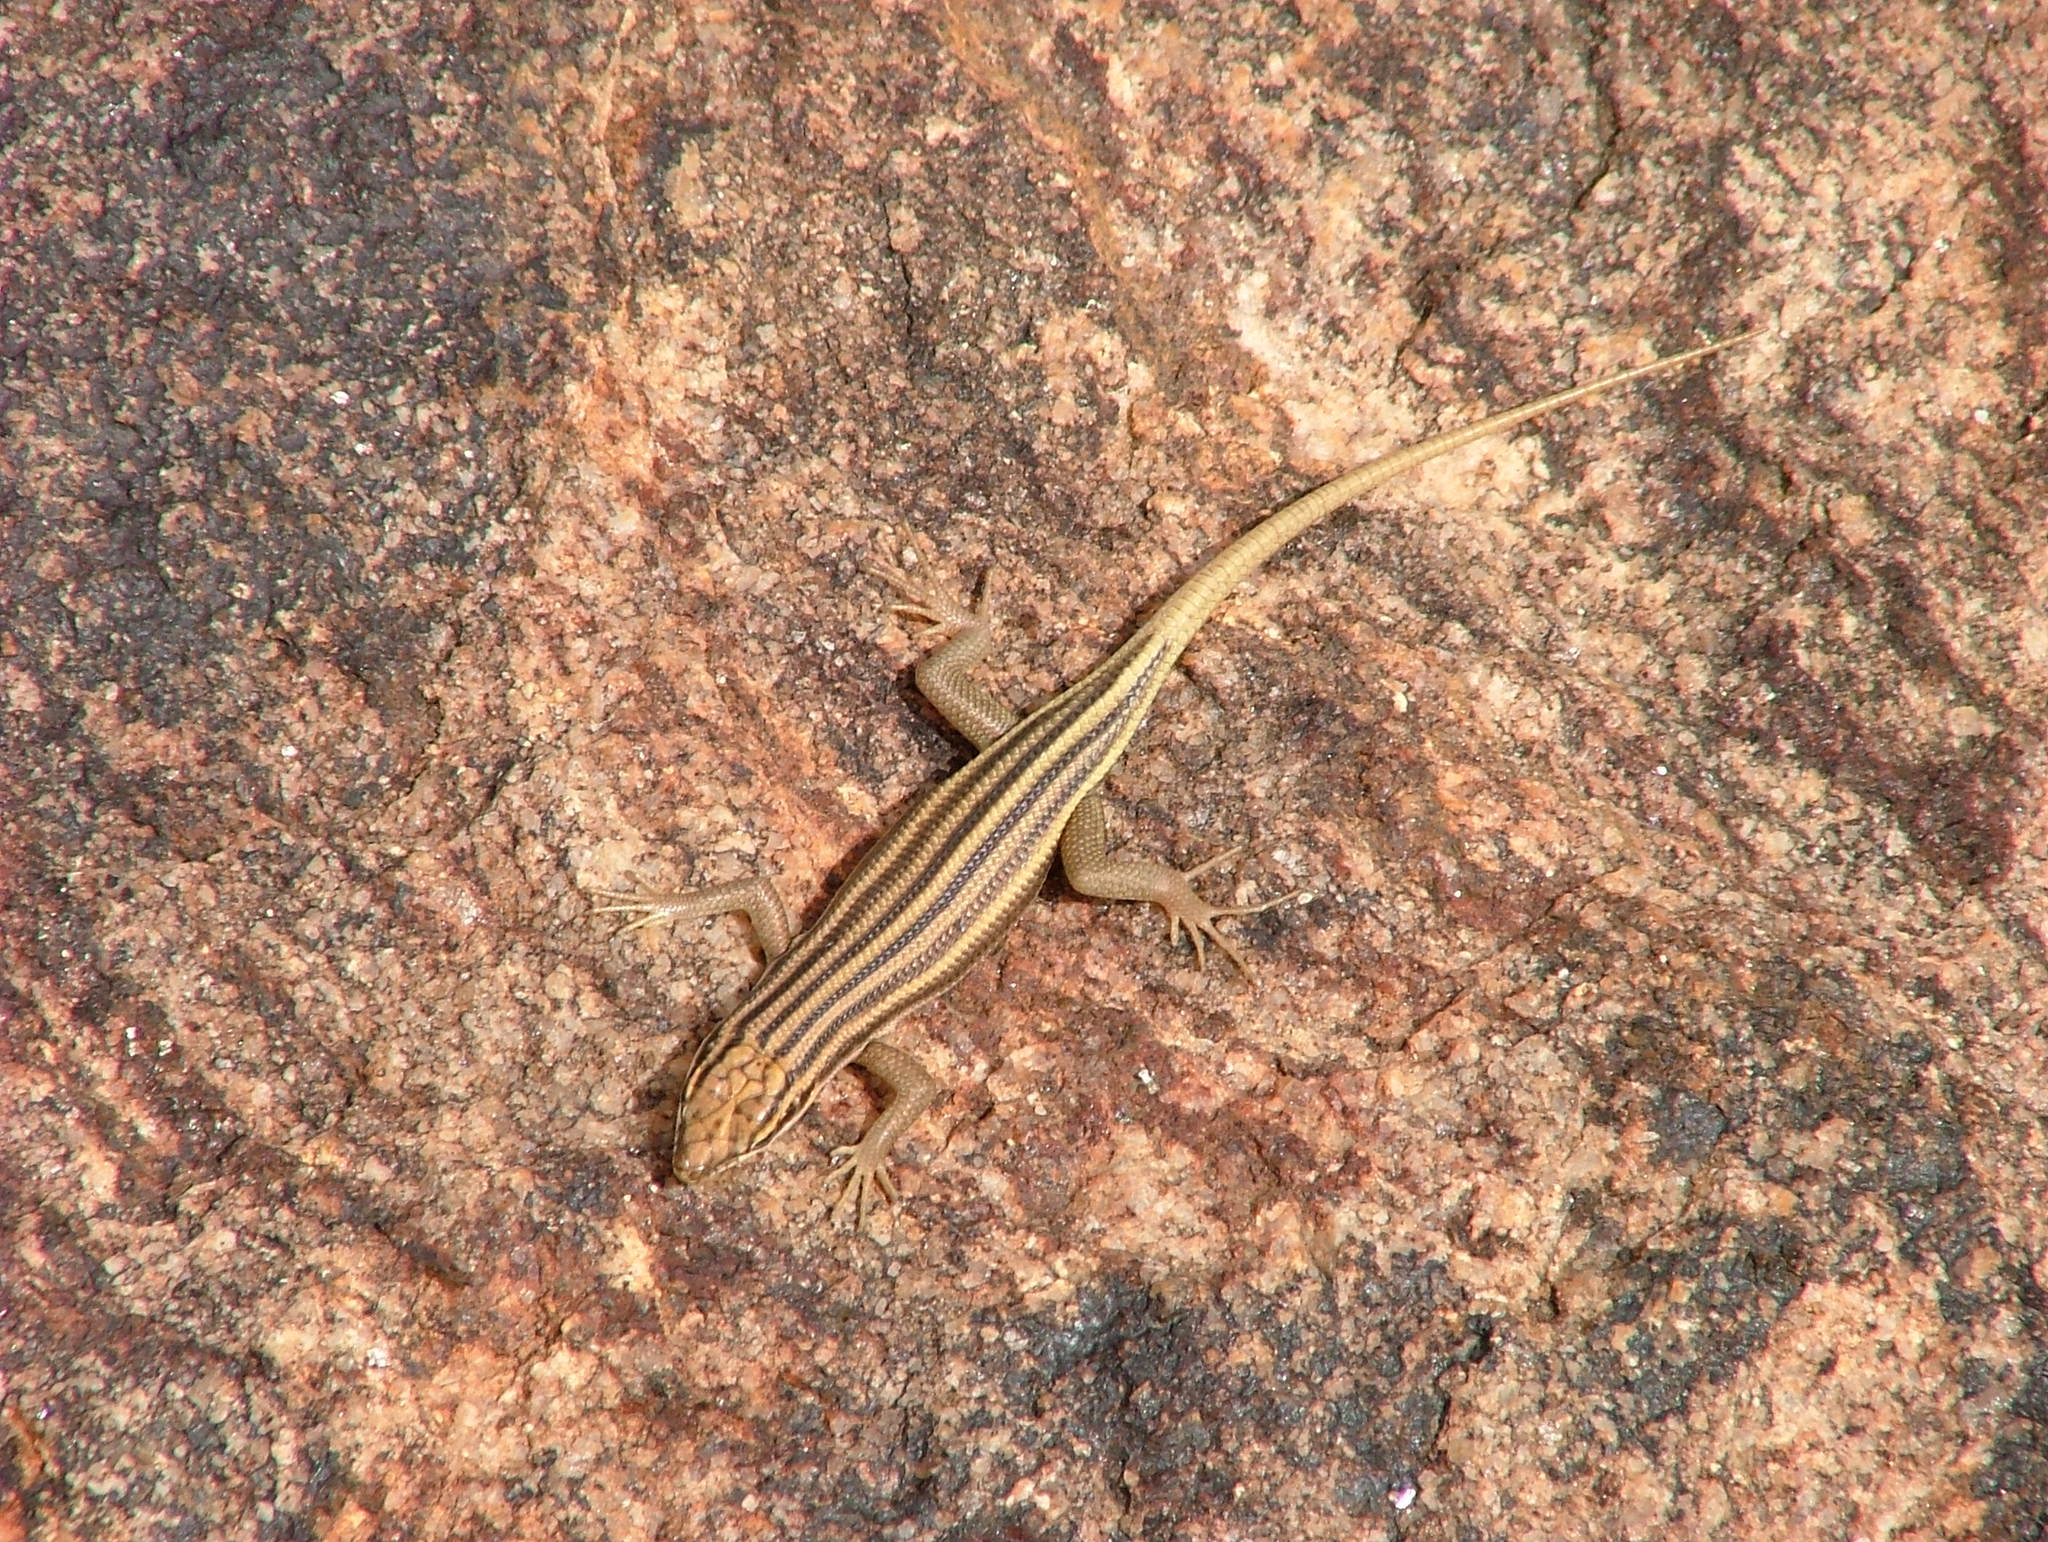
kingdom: Animalia
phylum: Chordata
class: Squamata
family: Scincidae
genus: Trachylepis
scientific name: Trachylepis sulcata
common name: Western rock skink
